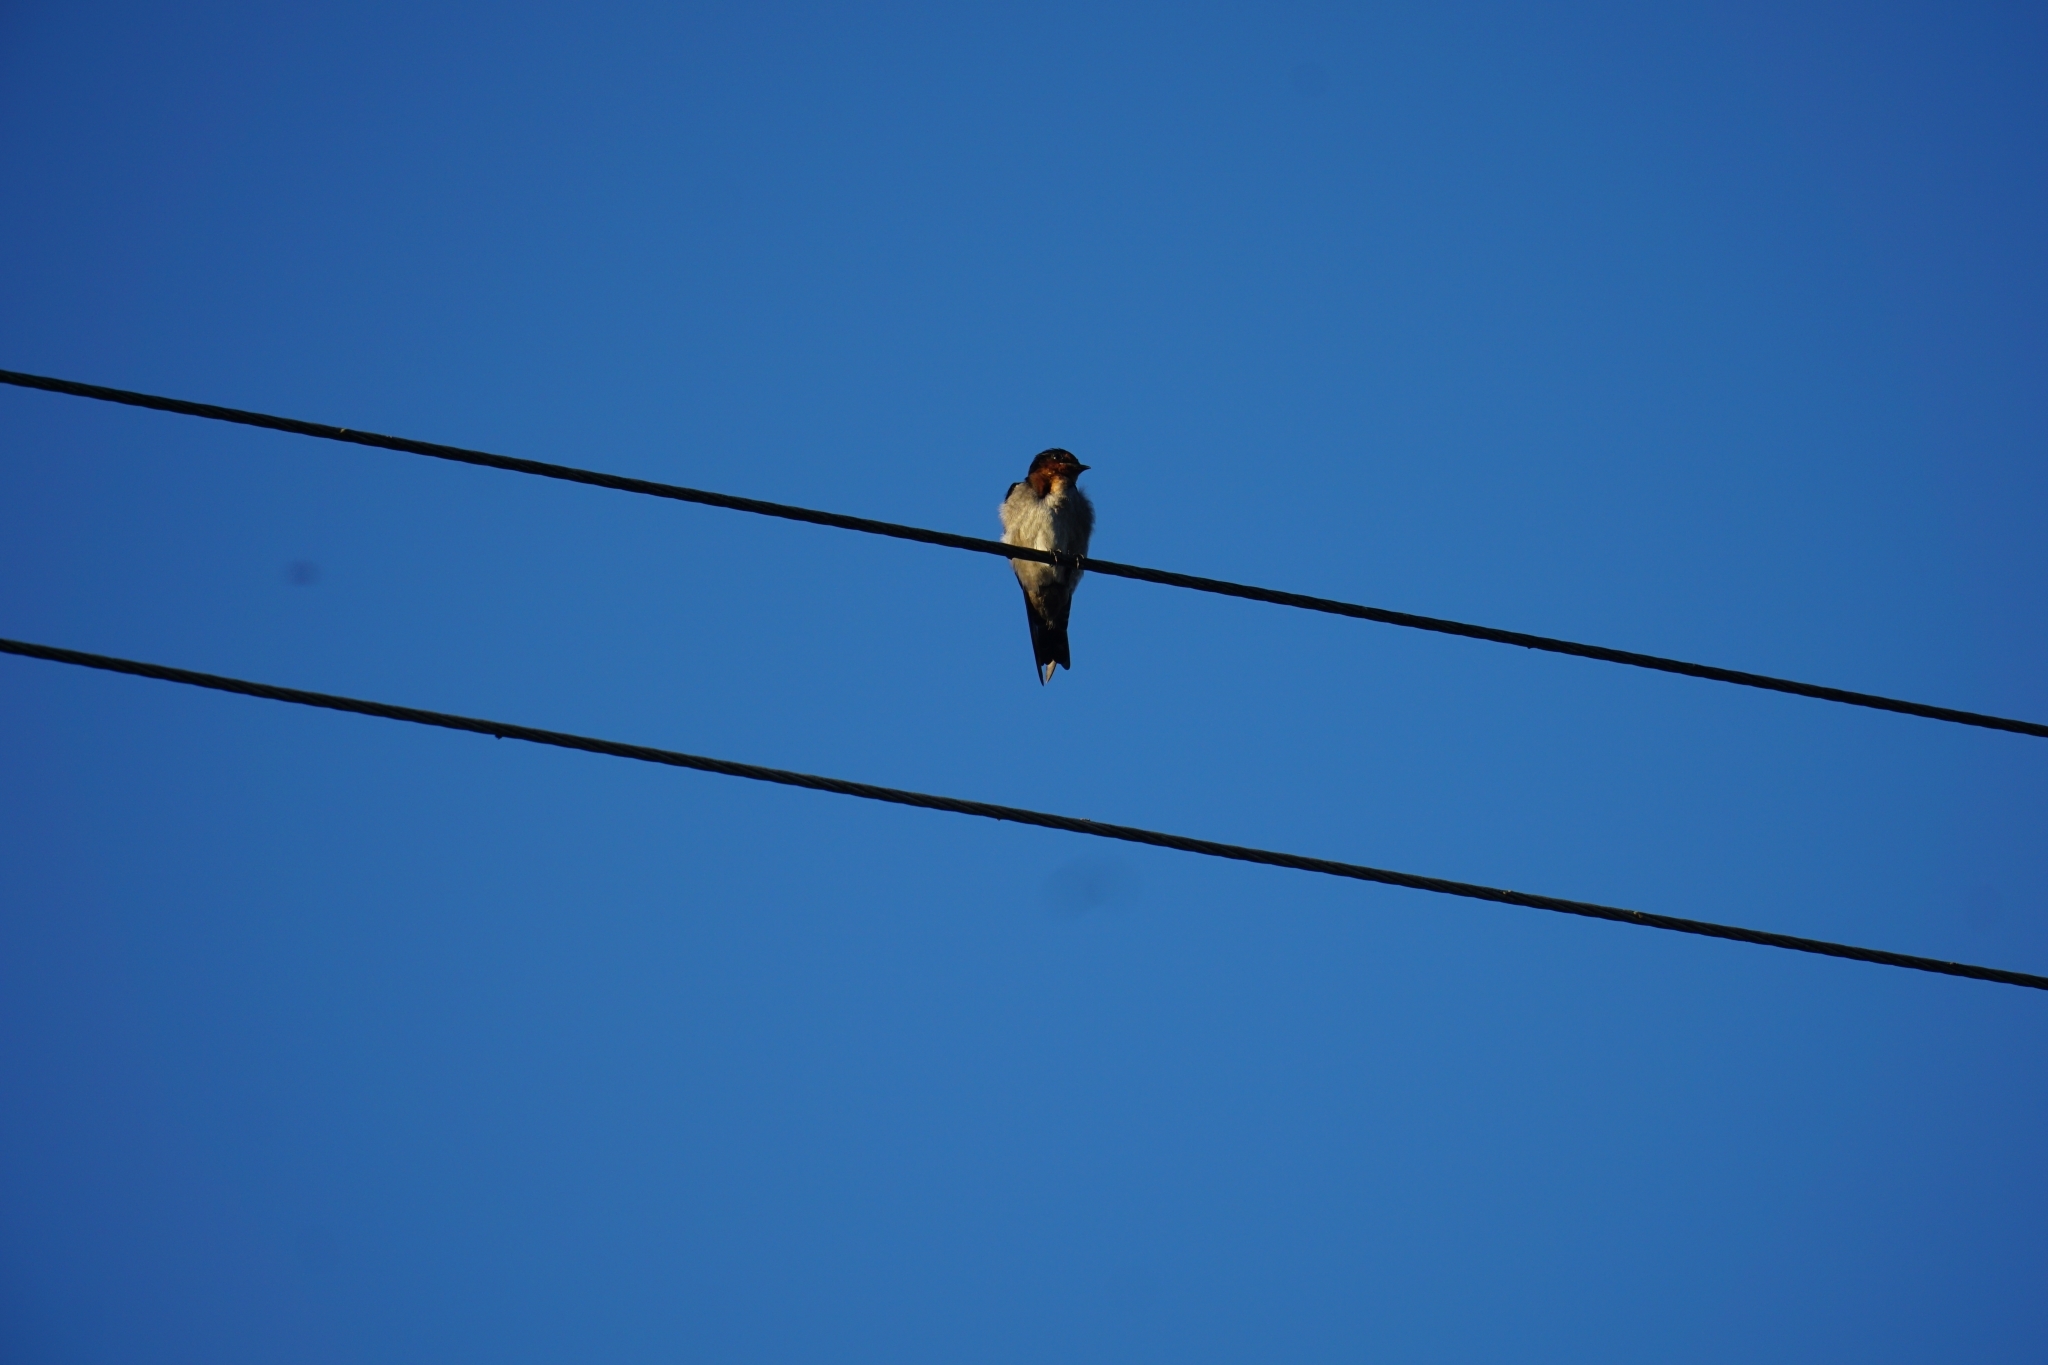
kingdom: Animalia
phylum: Chordata
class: Aves
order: Passeriformes
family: Hirundinidae
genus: Hirundo
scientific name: Hirundo tahitica
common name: Pacific swallow
